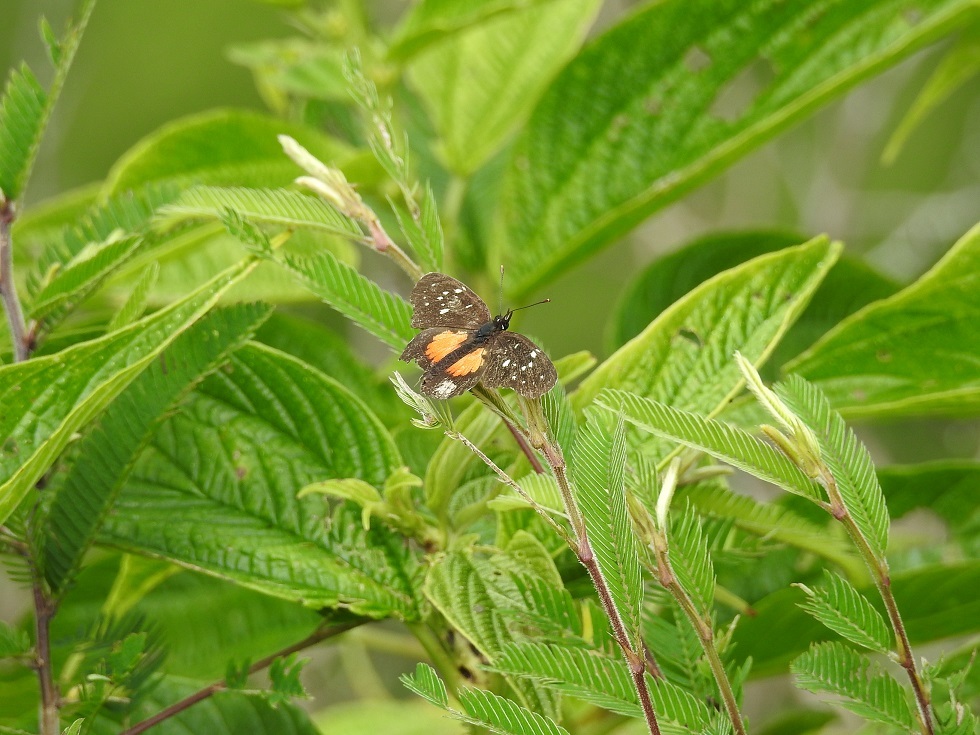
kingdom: Animalia
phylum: Arthropoda
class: Insecta
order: Lepidoptera
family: Nymphalidae
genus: Chlosyne
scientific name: Chlosyne rosita
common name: Rosita patch
